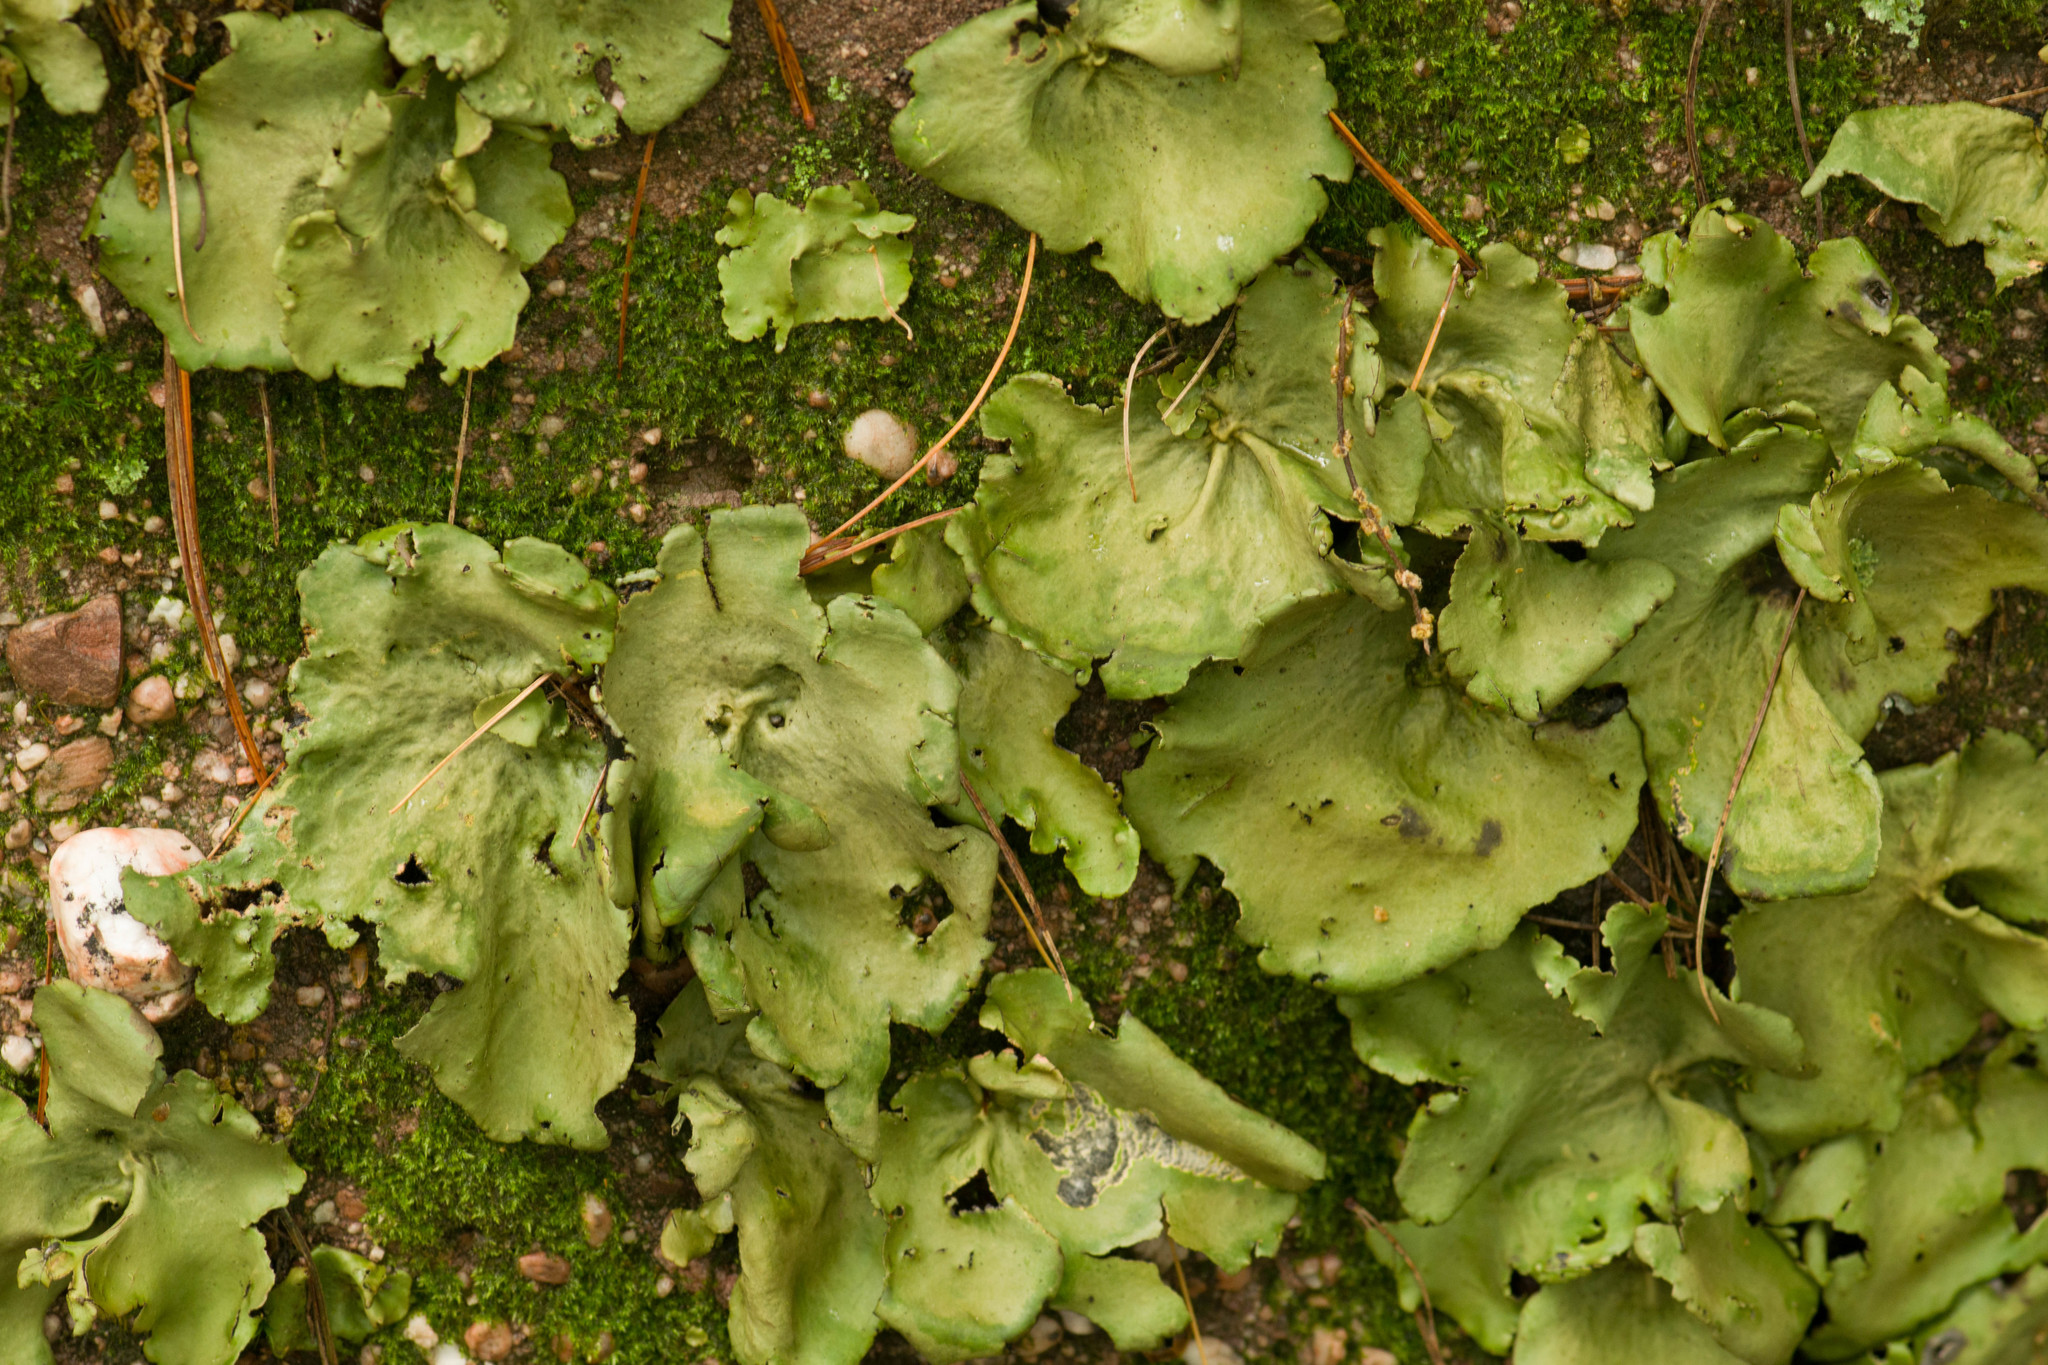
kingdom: Fungi
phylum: Ascomycota
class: Lecanoromycetes
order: Umbilicariales
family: Umbilicariaceae
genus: Umbilicaria
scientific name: Umbilicaria mammulata
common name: Smooth rock tripe
